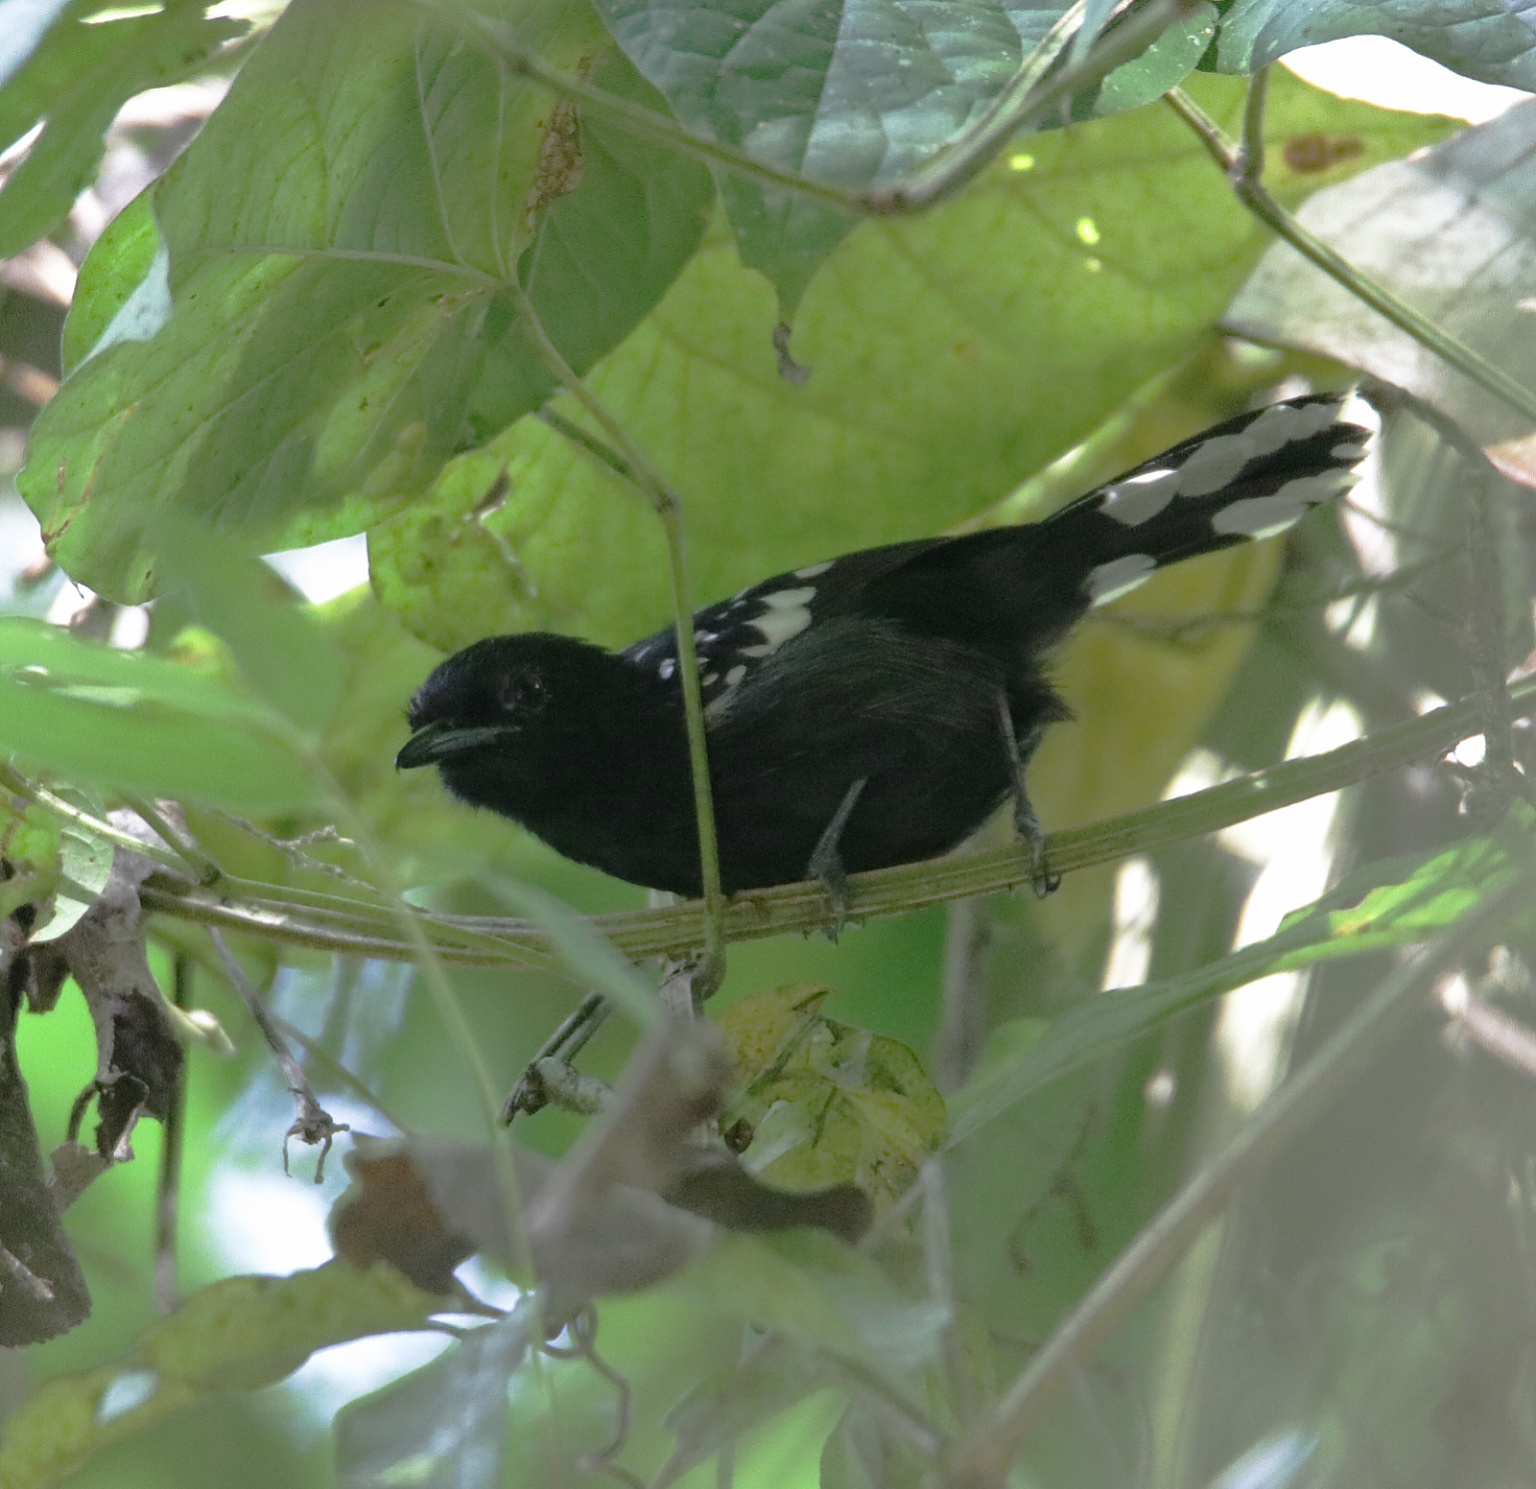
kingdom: Animalia
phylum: Chordata
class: Aves
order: Passeriformes
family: Thamnophilidae
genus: Microrhopias
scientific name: Microrhopias quixensis
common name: Dot-winged antwren
